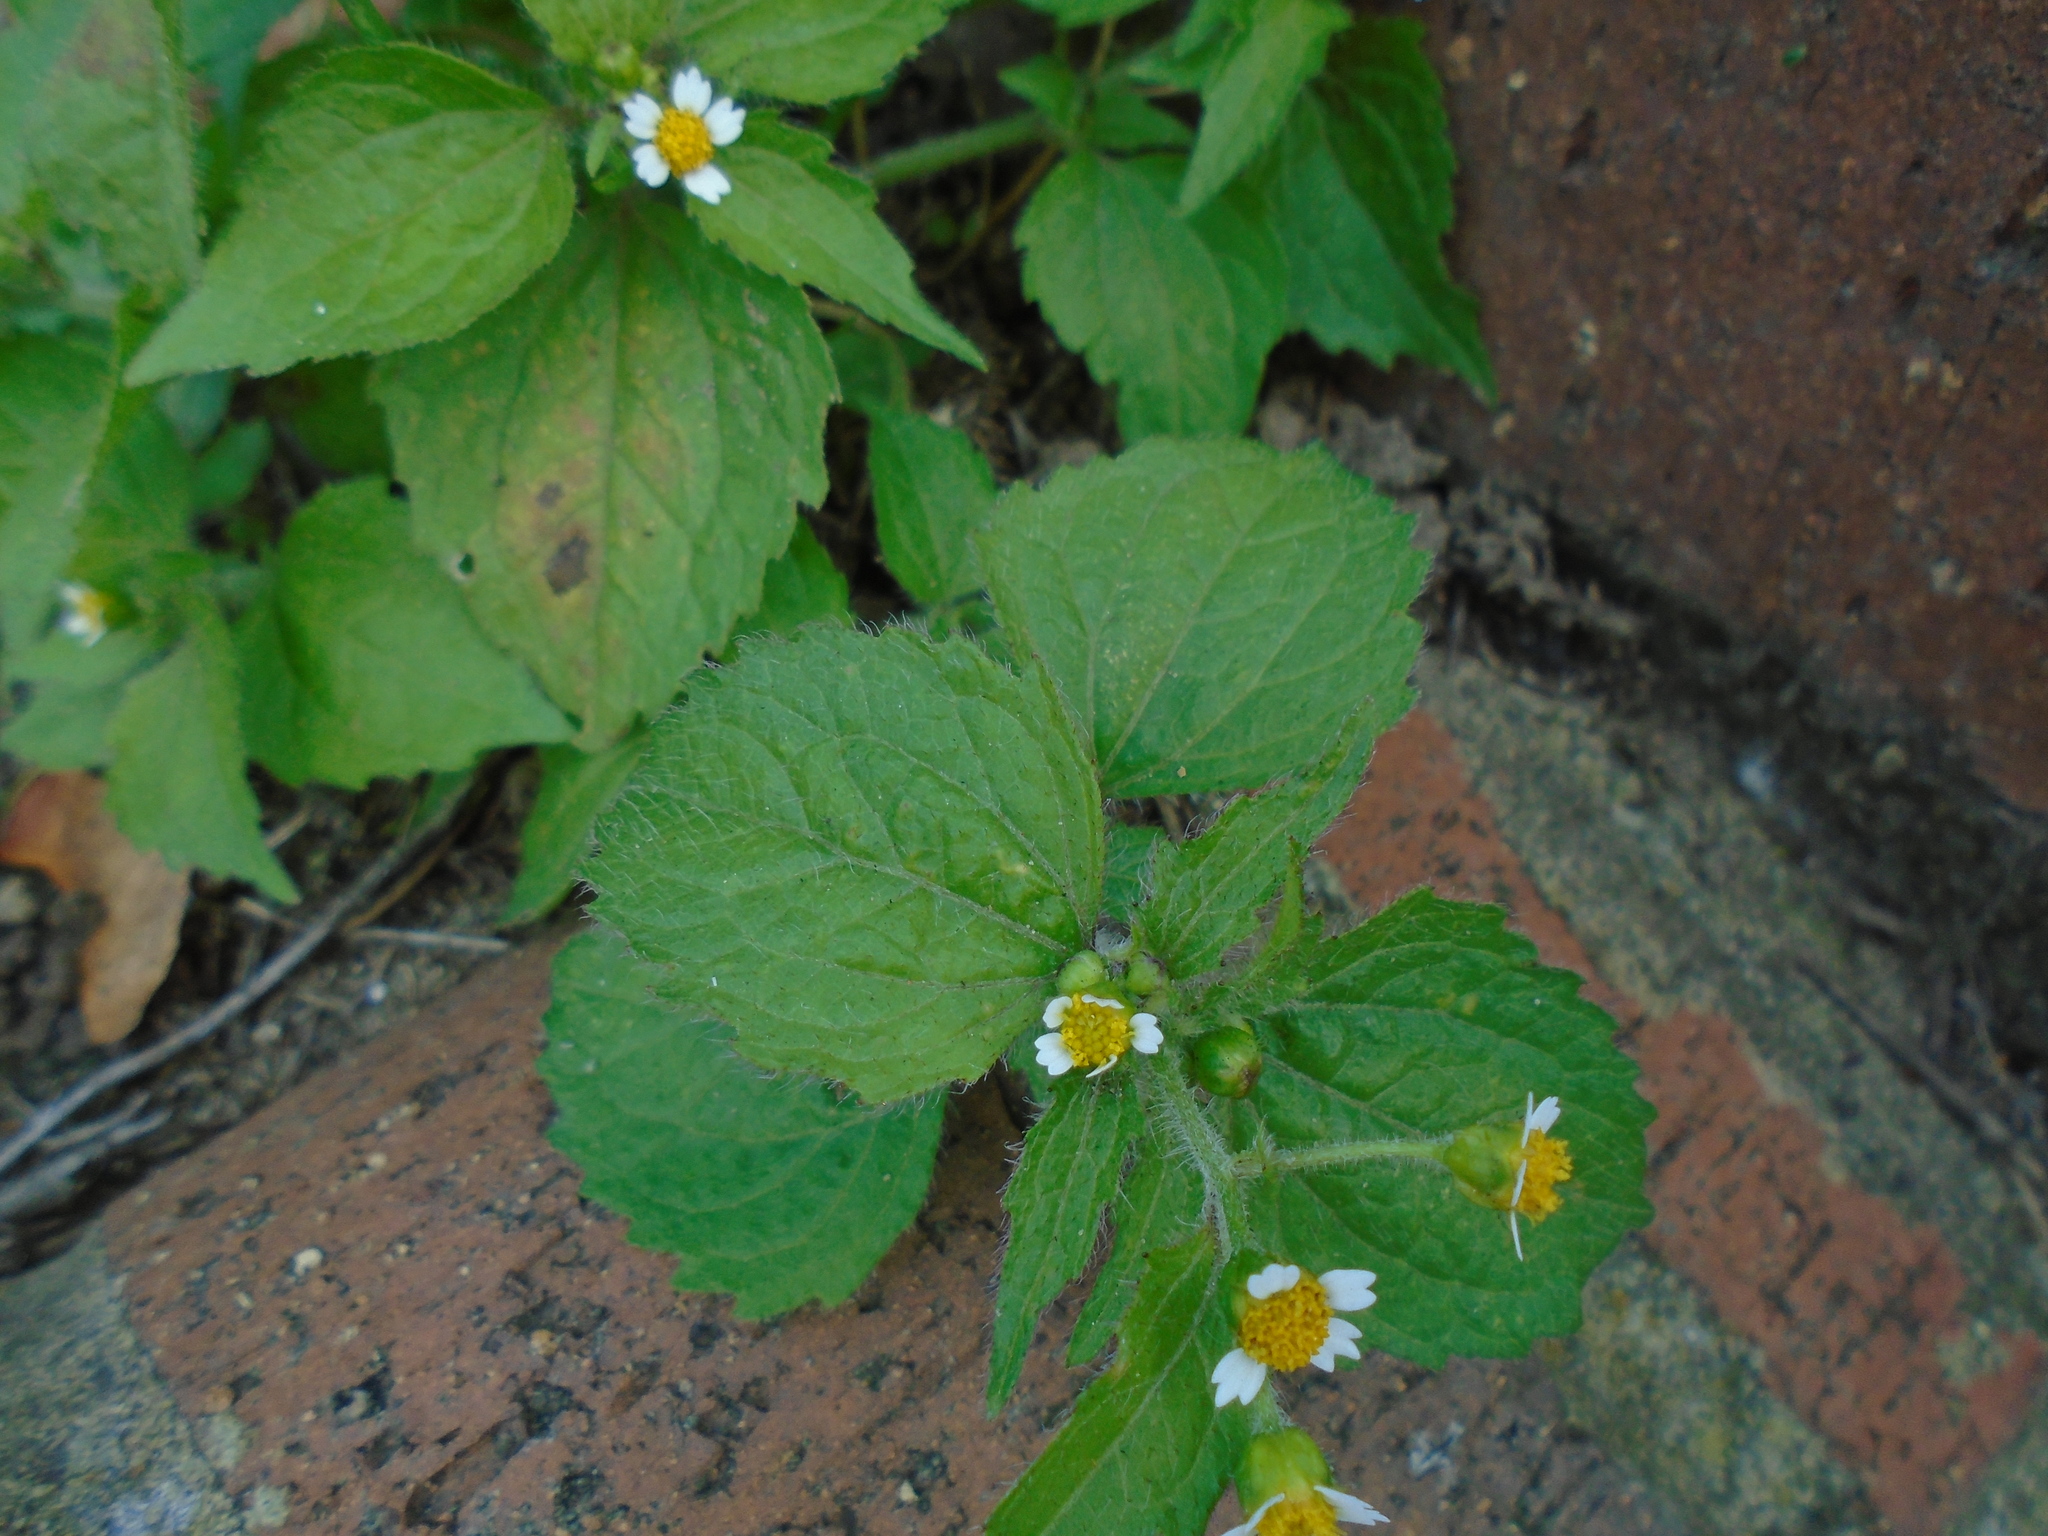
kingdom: Plantae
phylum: Tracheophyta
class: Magnoliopsida
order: Asterales
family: Asteraceae
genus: Galinsoga
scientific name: Galinsoga quadriradiata
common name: Shaggy soldier
